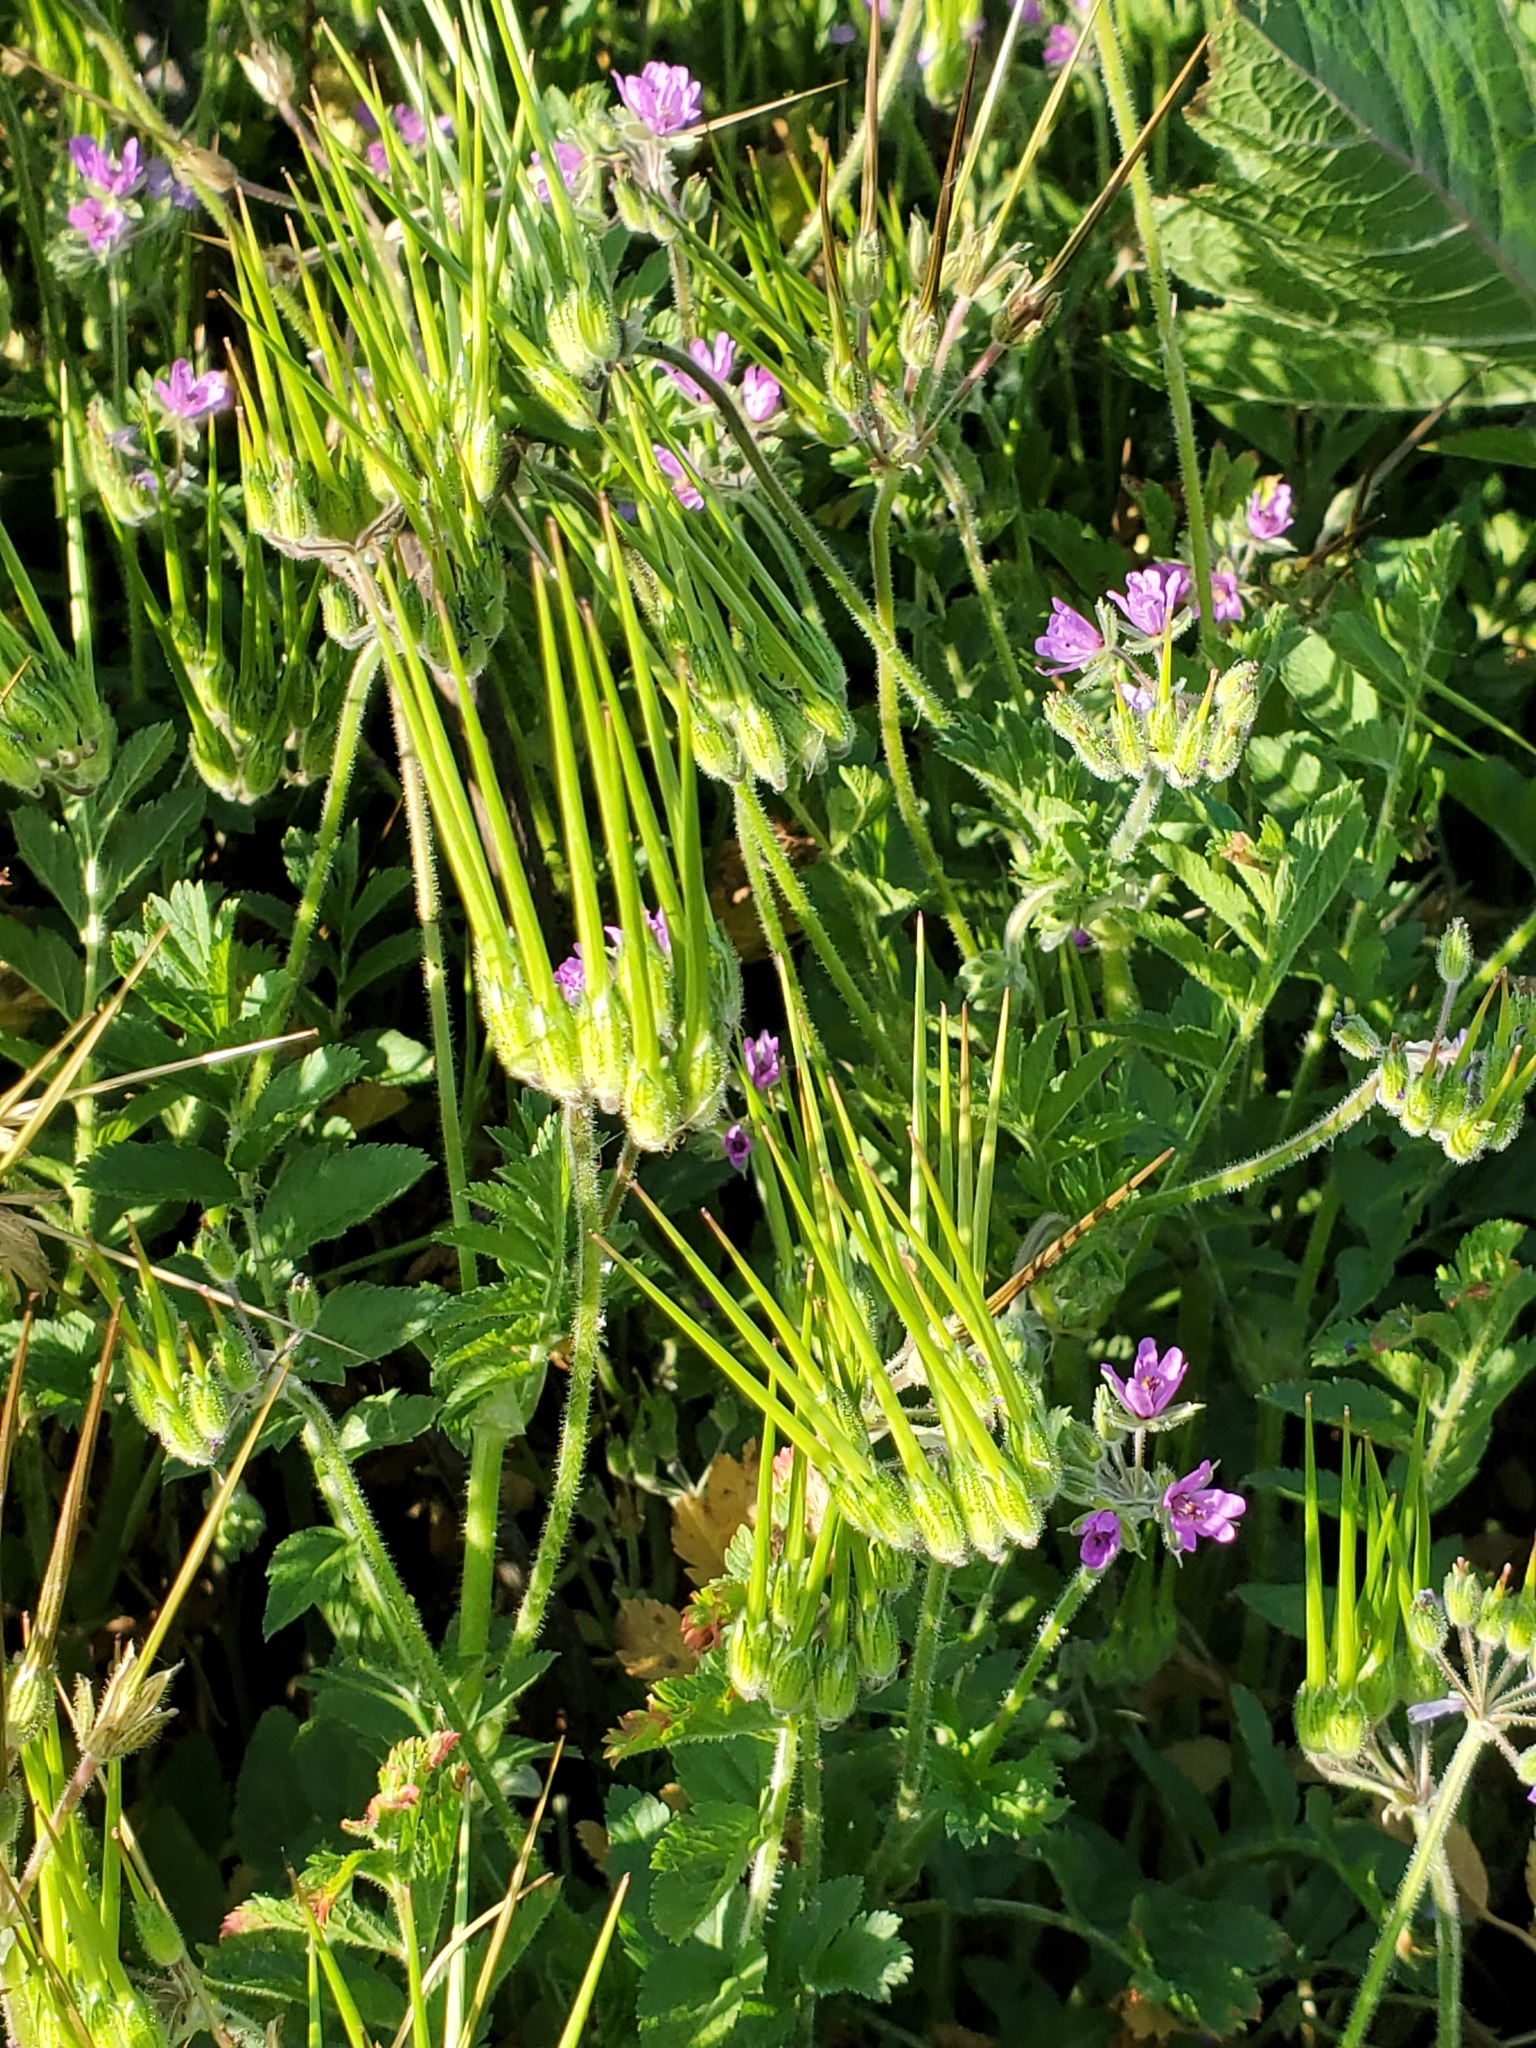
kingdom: Plantae
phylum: Tracheophyta
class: Magnoliopsida
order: Geraniales
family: Geraniaceae
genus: Erodium
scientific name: Erodium moschatum
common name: Musk stork's-bill
